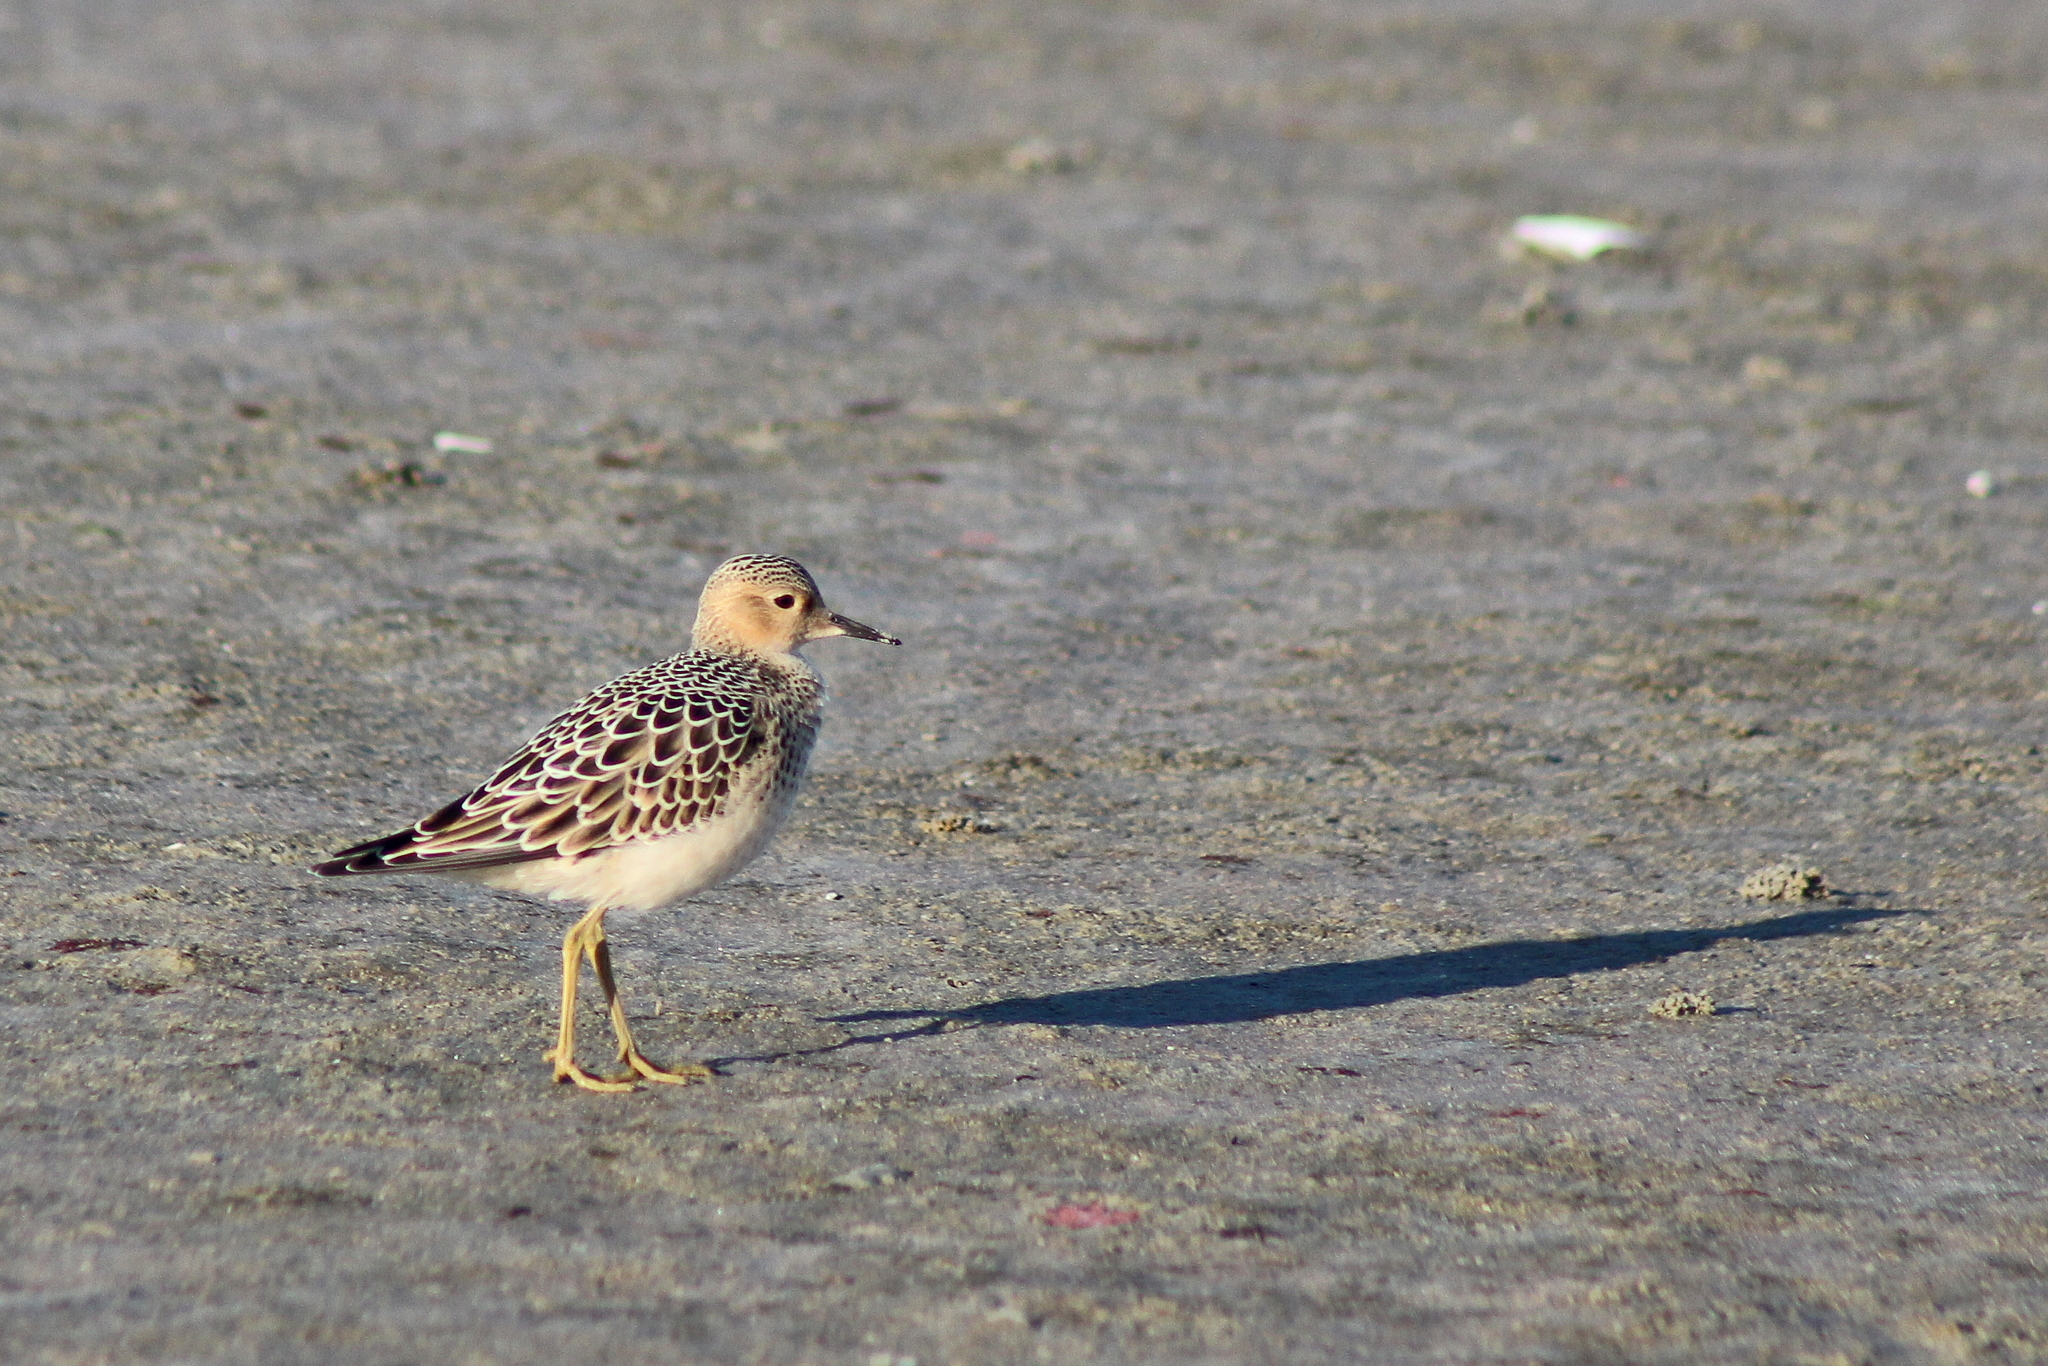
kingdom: Animalia
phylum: Chordata
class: Aves
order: Charadriiformes
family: Scolopacidae
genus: Calidris
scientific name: Calidris subruficollis
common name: Buff-breasted sandpiper
